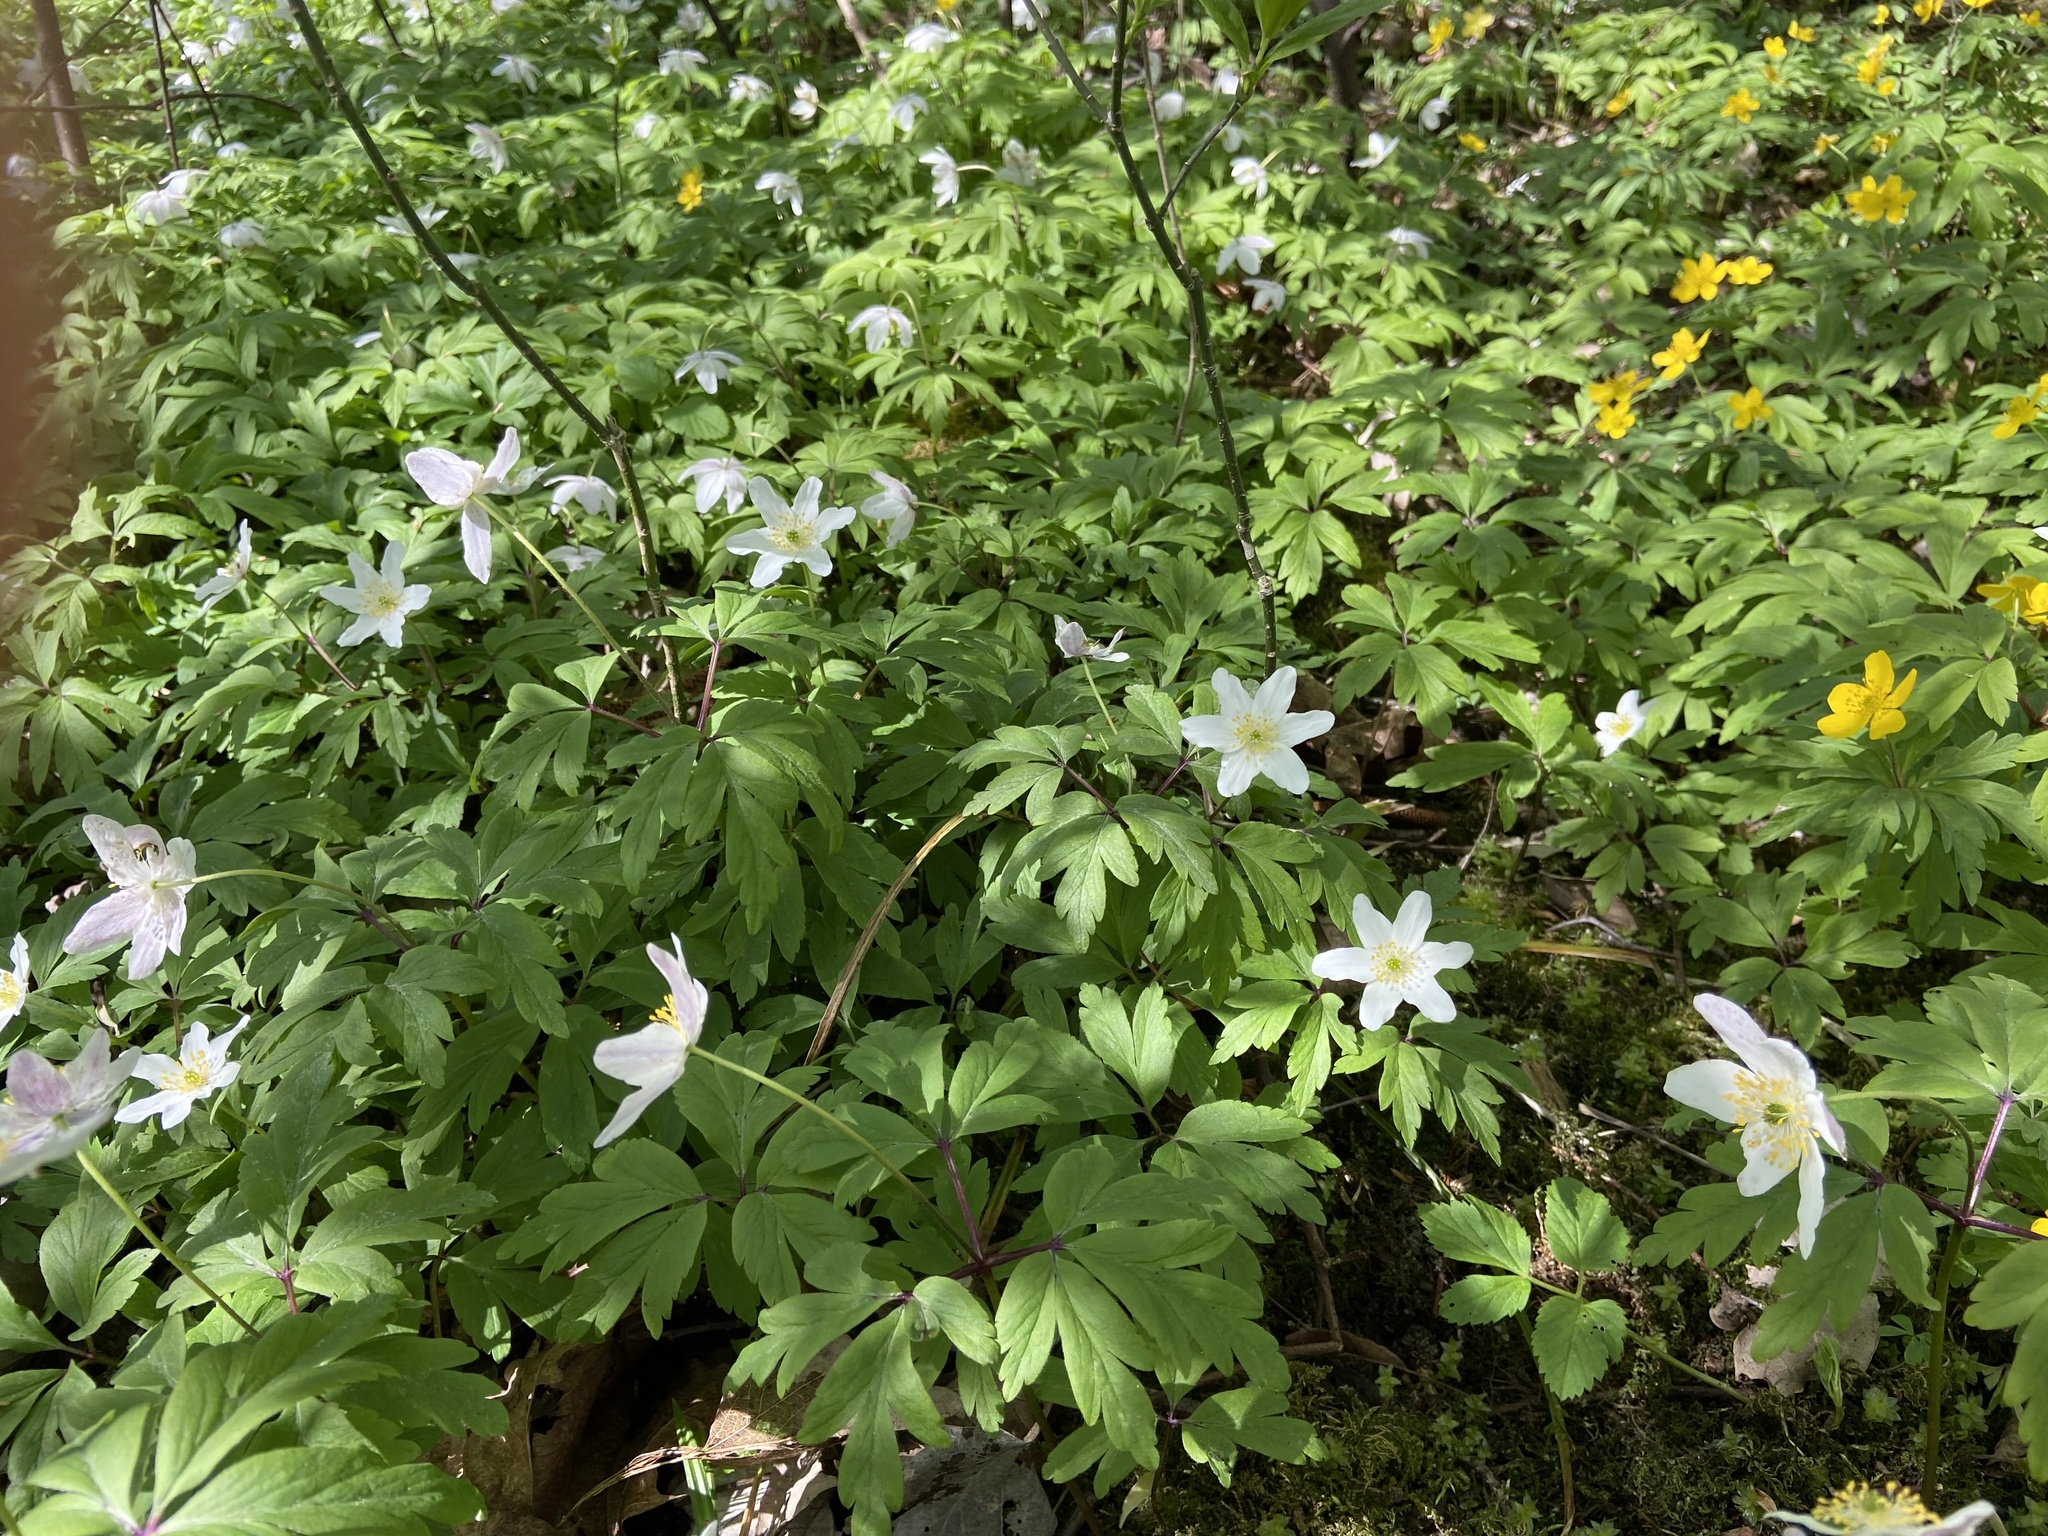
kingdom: Plantae
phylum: Tracheophyta
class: Magnoliopsida
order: Ranunculales
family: Ranunculaceae
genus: Anemone
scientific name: Anemone nemorosa
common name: Wood anemone
